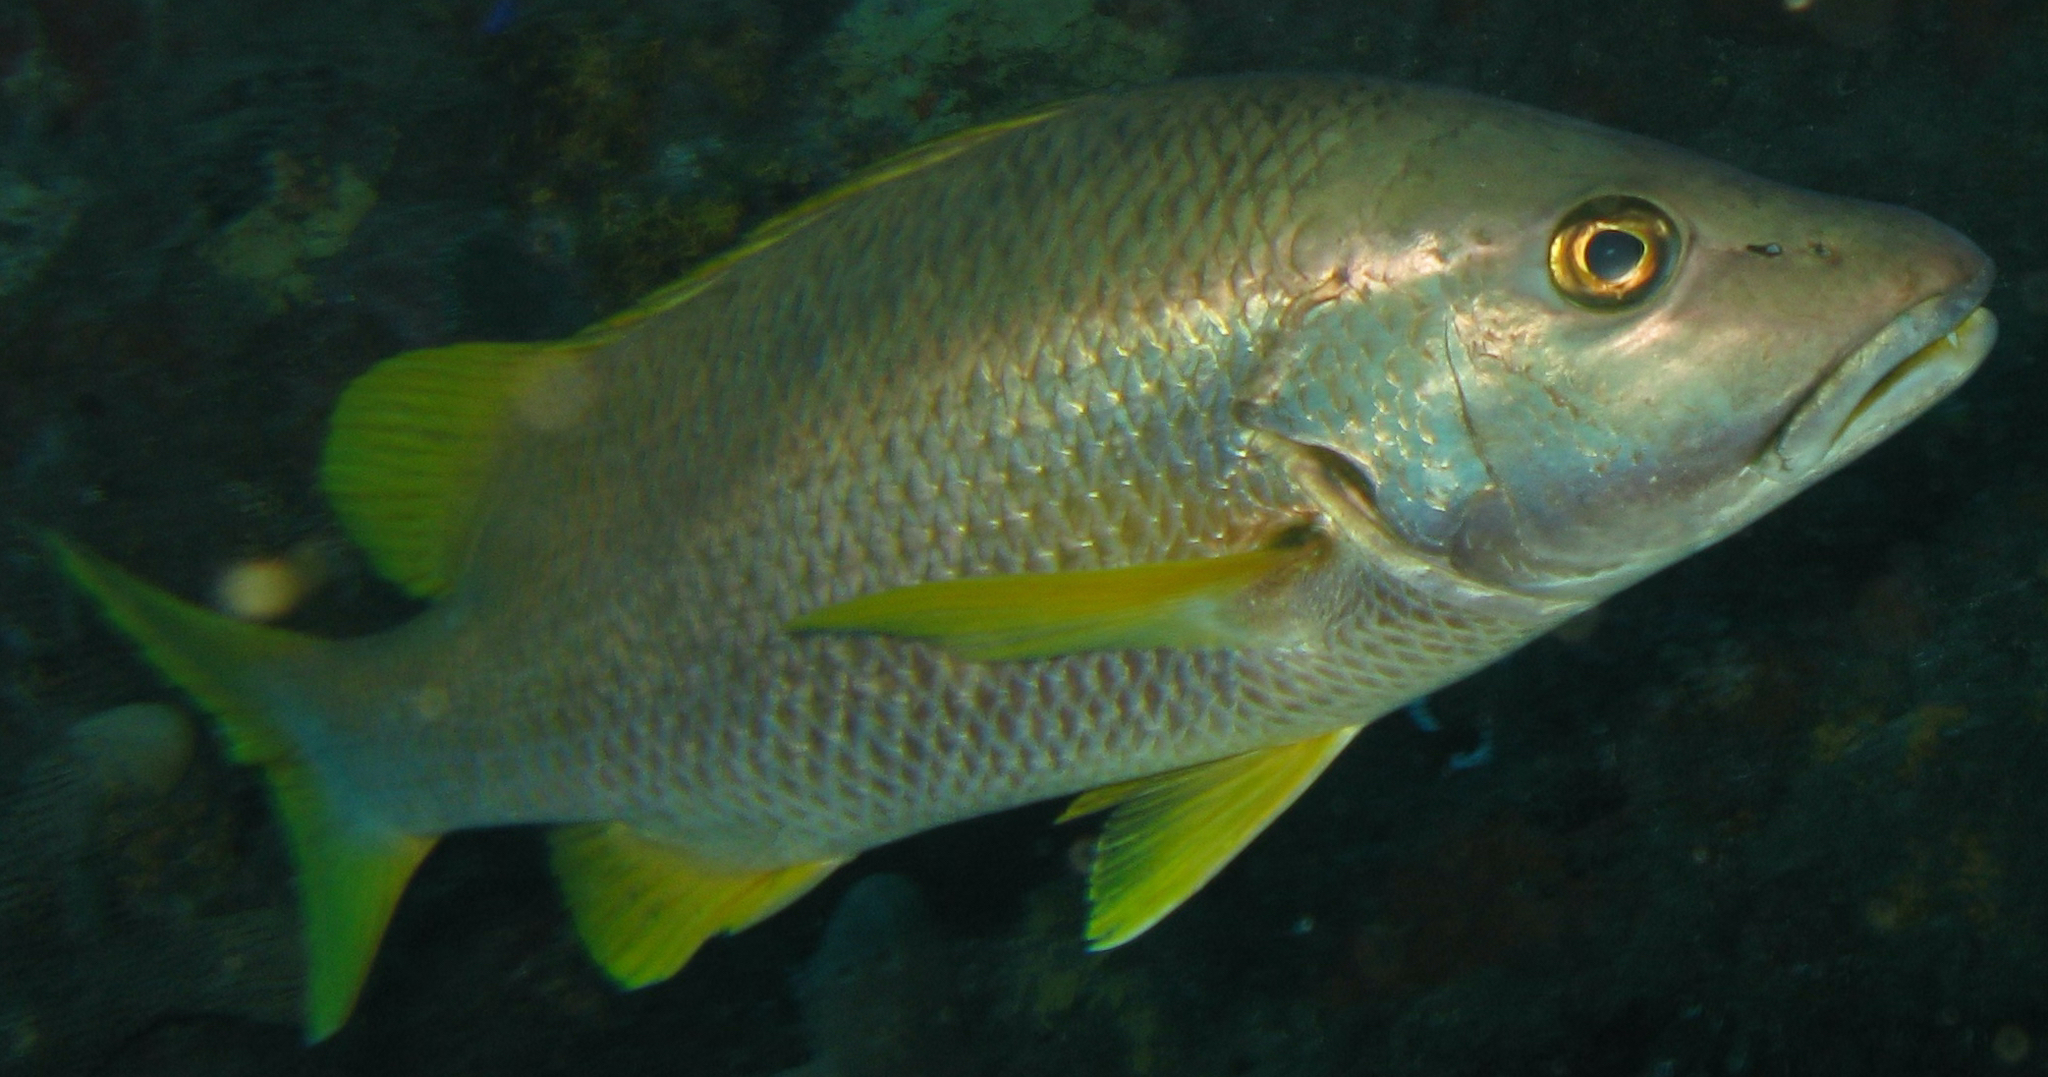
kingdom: Animalia
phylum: Chordata
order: Perciformes
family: Lutjanidae
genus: Lutjanus
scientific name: Lutjanus apodus
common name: Schoolmaster
